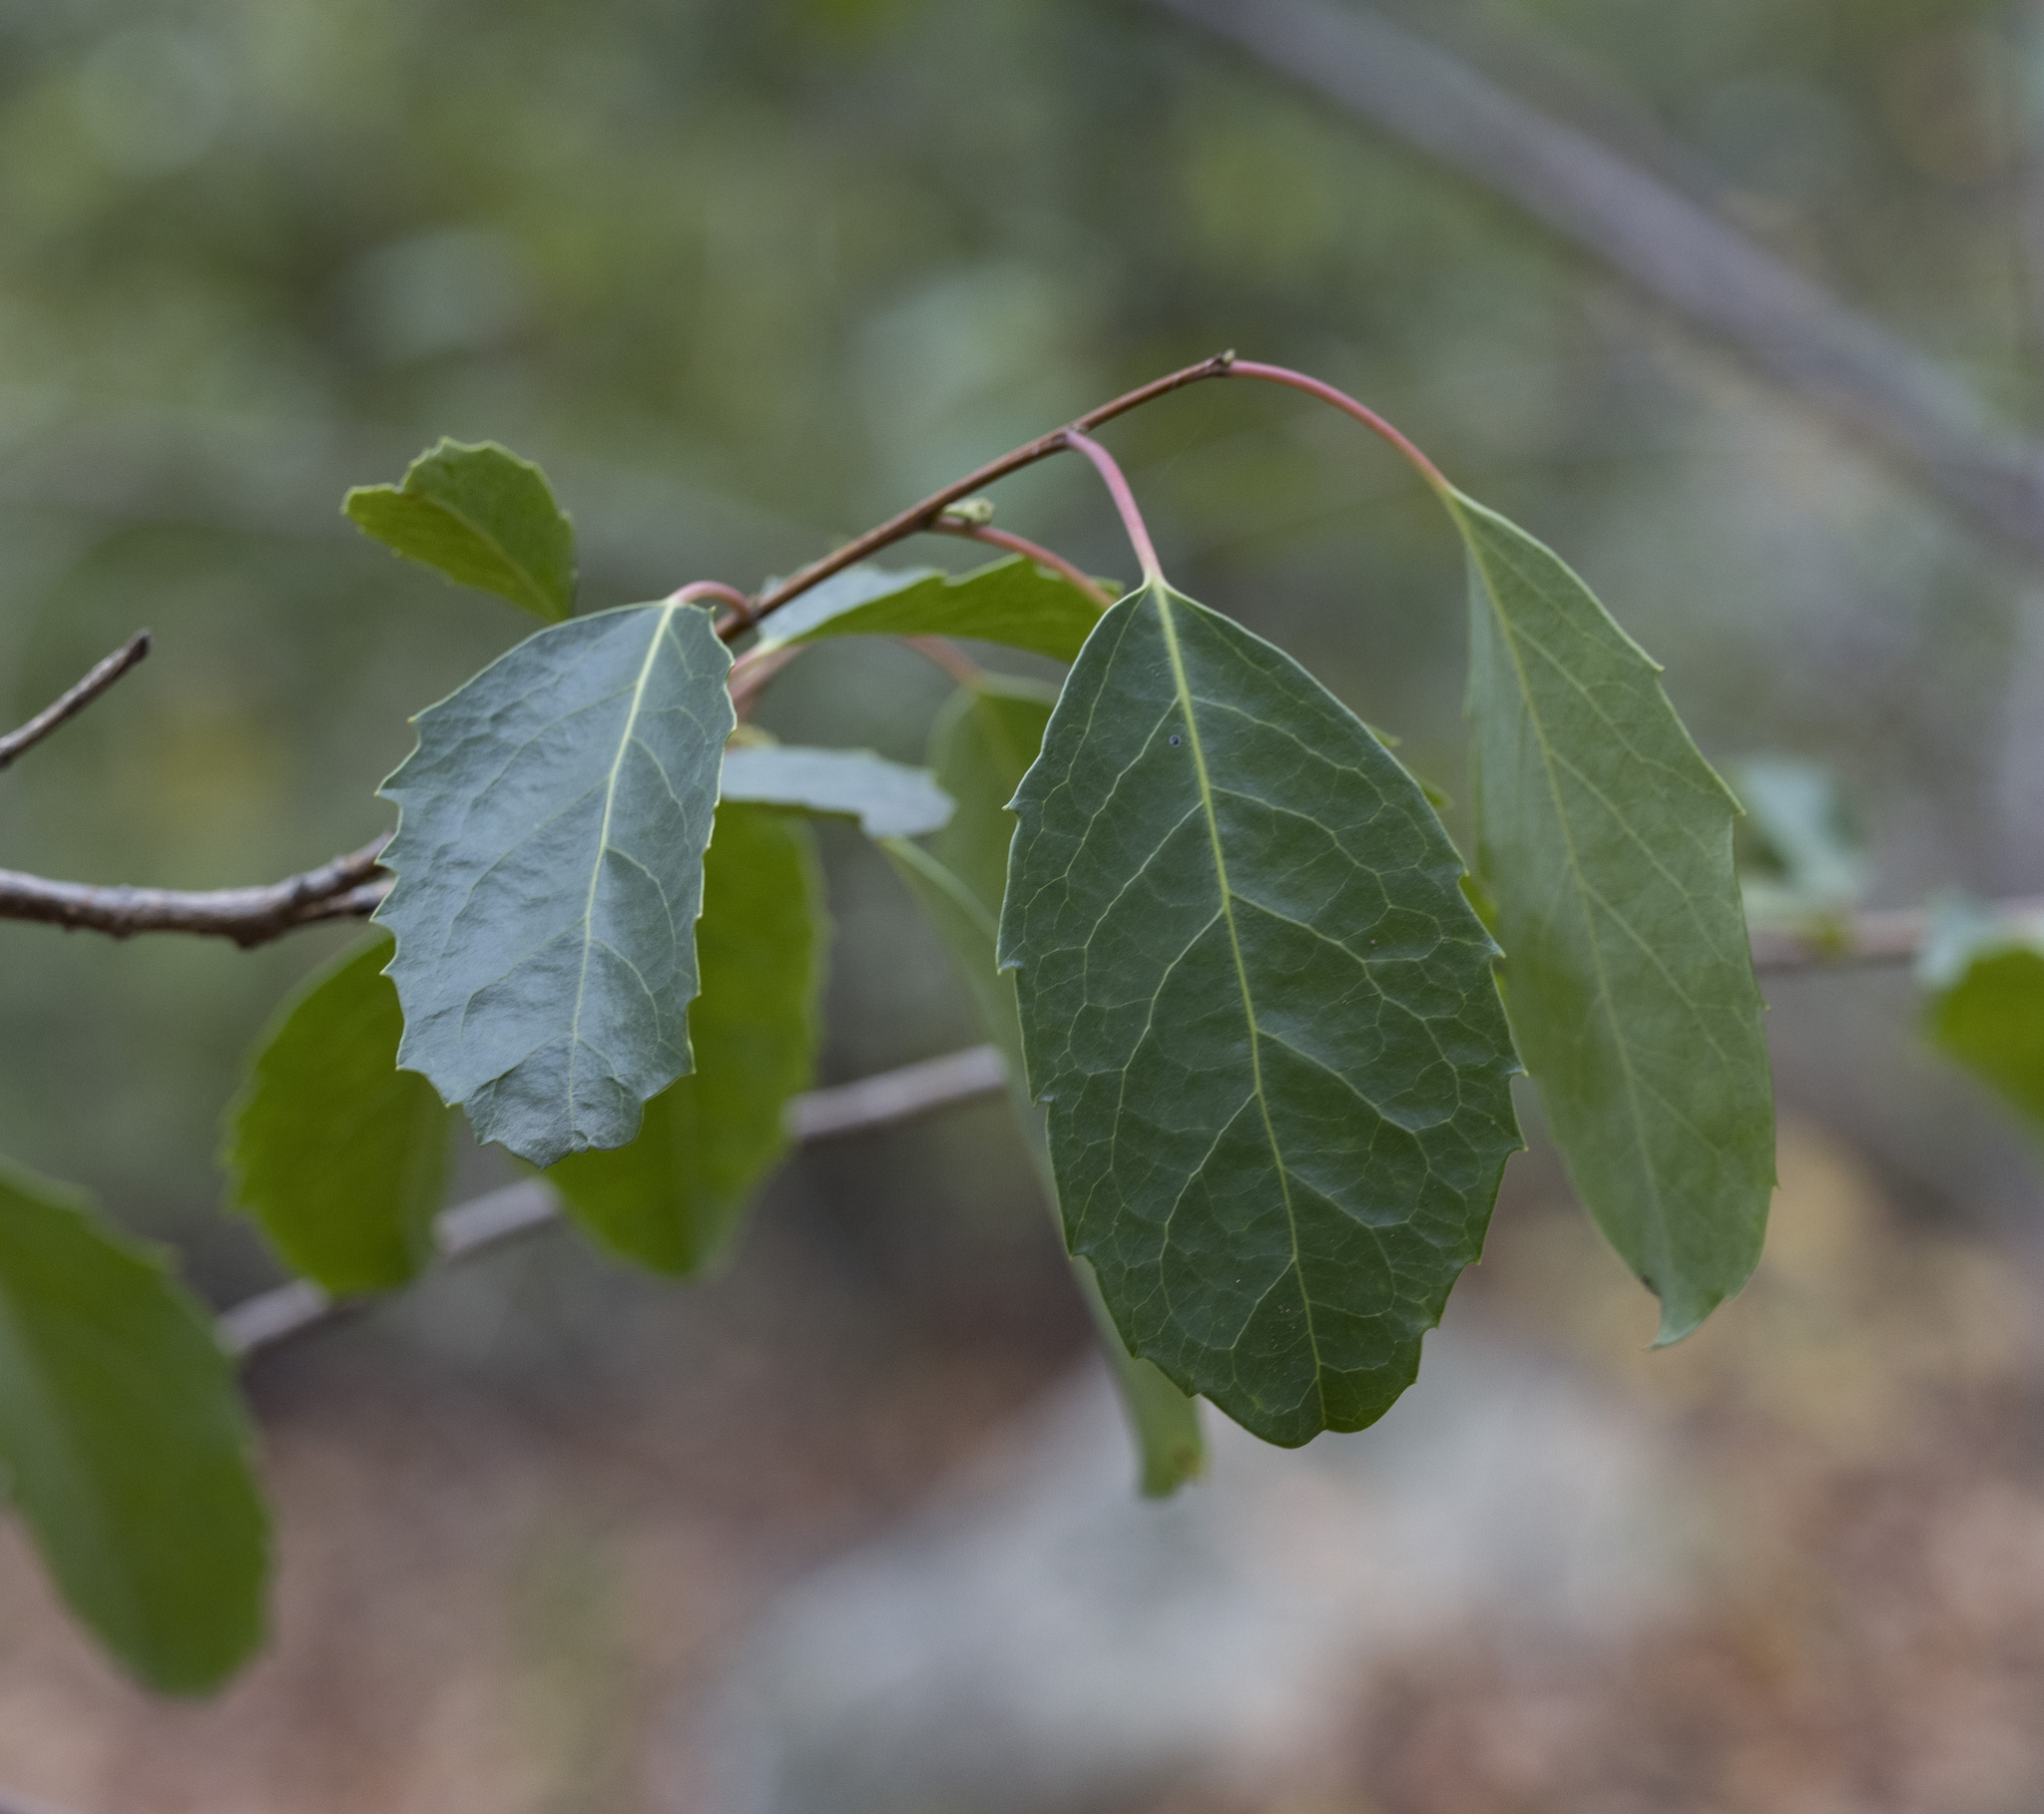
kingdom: Plantae
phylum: Tracheophyta
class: Magnoliopsida
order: Malpighiales
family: Salicaceae
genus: Azara
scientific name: Azara petiolaris
